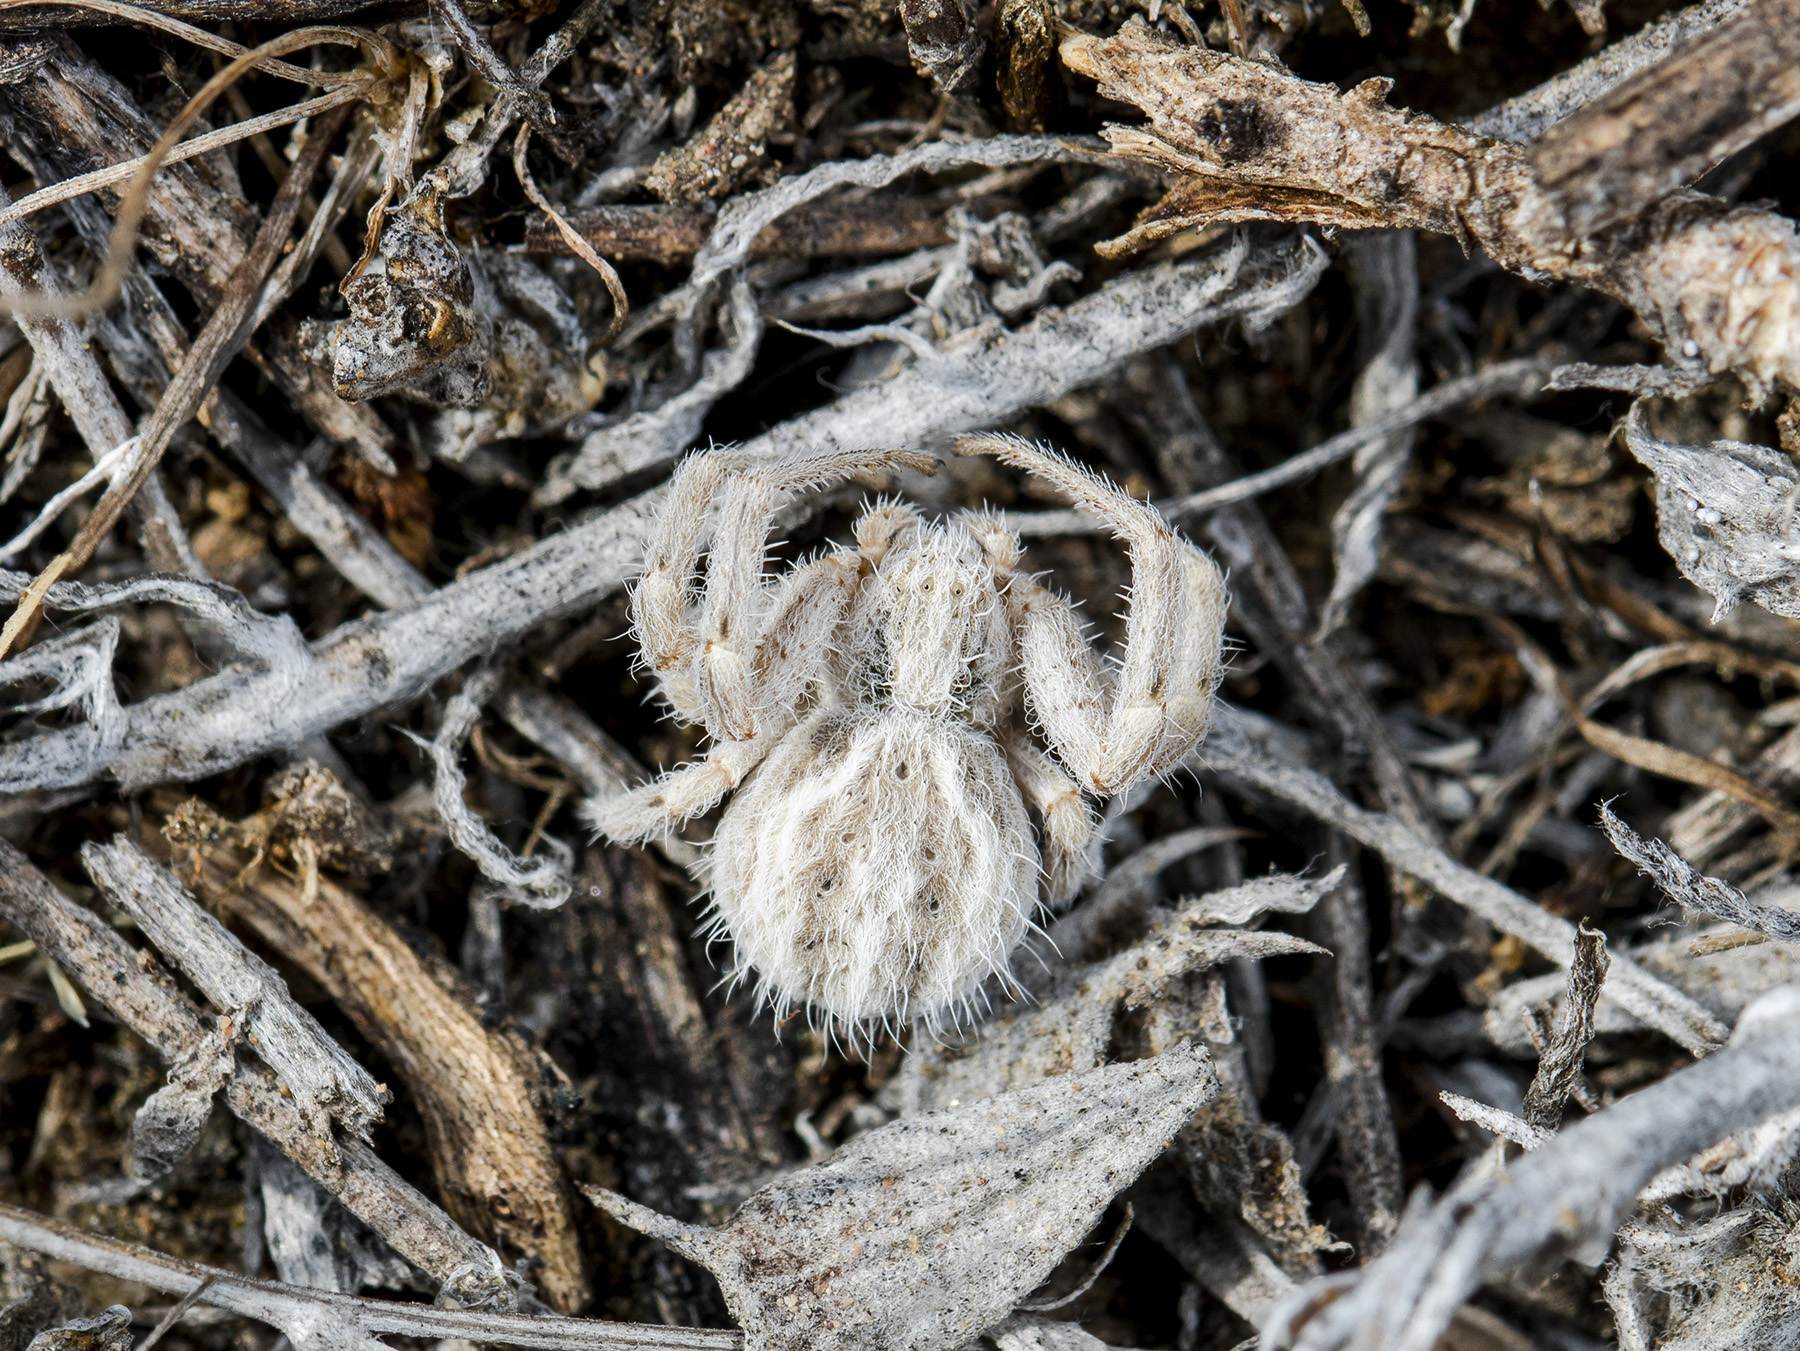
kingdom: Animalia
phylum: Arthropoda
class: Arachnida
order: Araneae
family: Thomisidae
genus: Heriaeus
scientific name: Heriaeus horridus
